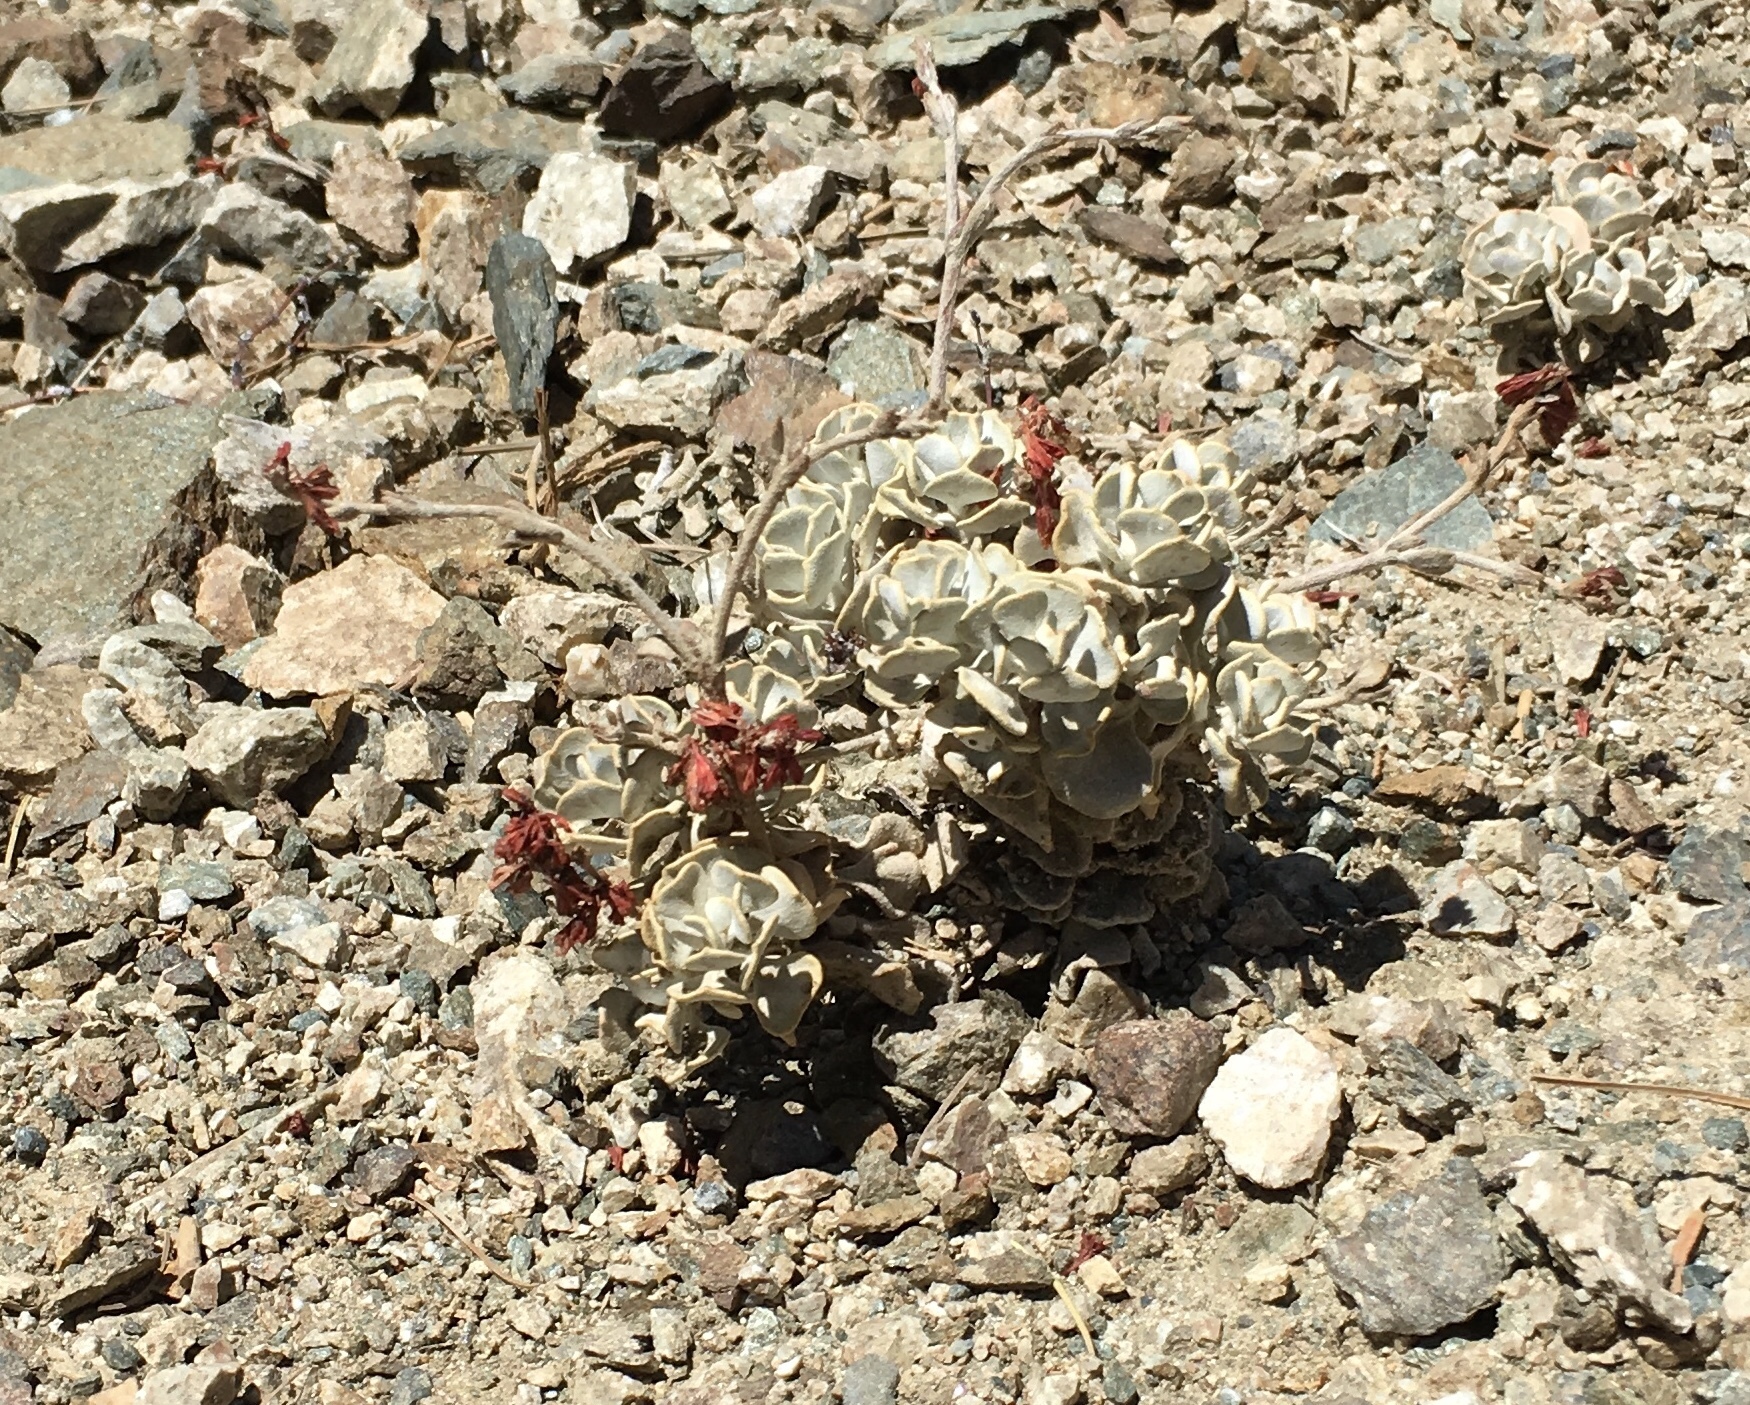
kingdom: Plantae
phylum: Tracheophyta
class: Magnoliopsida
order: Caryophyllales
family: Polygonaceae
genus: Eriogonum
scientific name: Eriogonum saxatile
